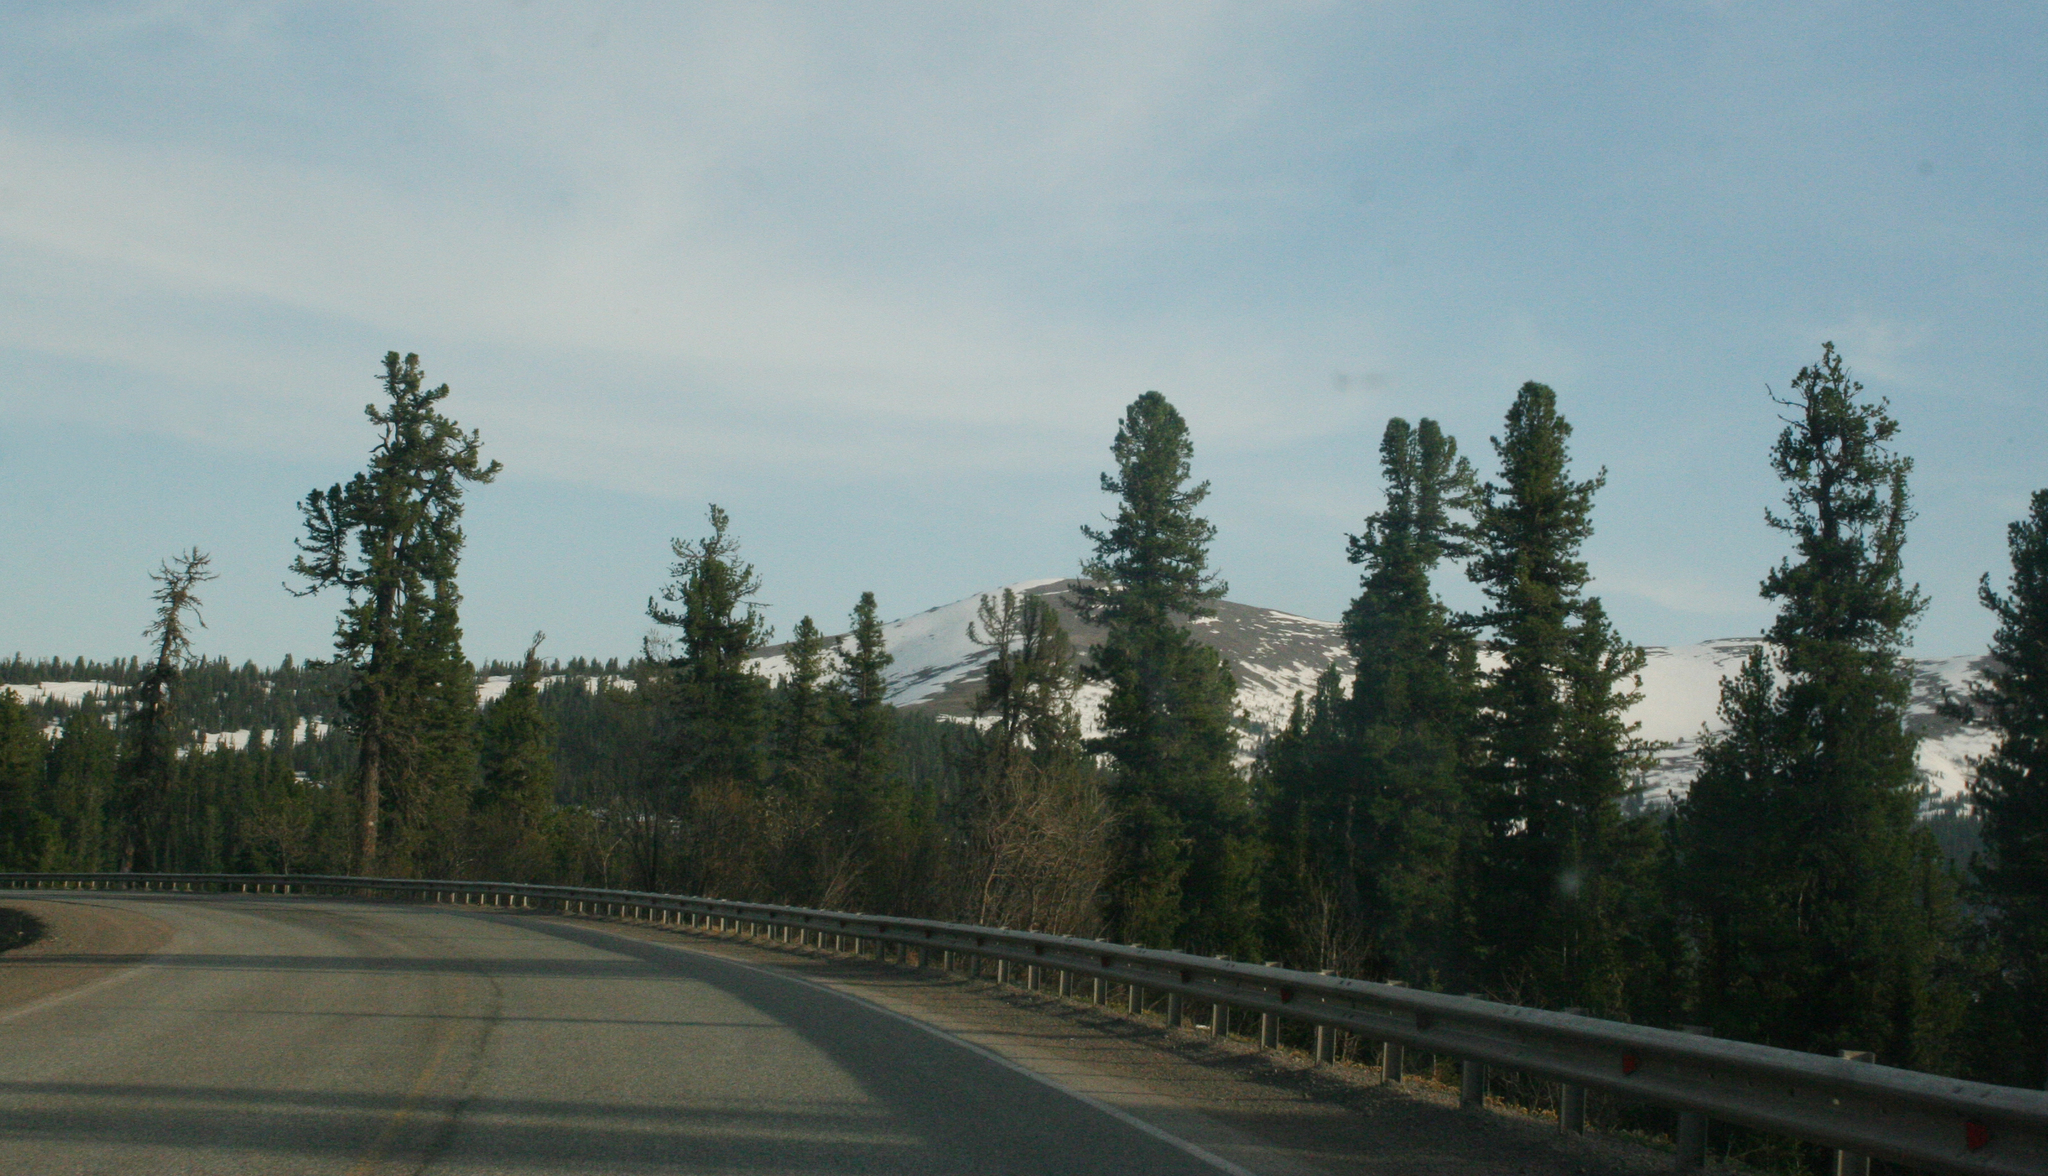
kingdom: Plantae
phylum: Tracheophyta
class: Pinopsida
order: Pinales
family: Pinaceae
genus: Pinus
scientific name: Pinus sibirica
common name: Siberian pine
